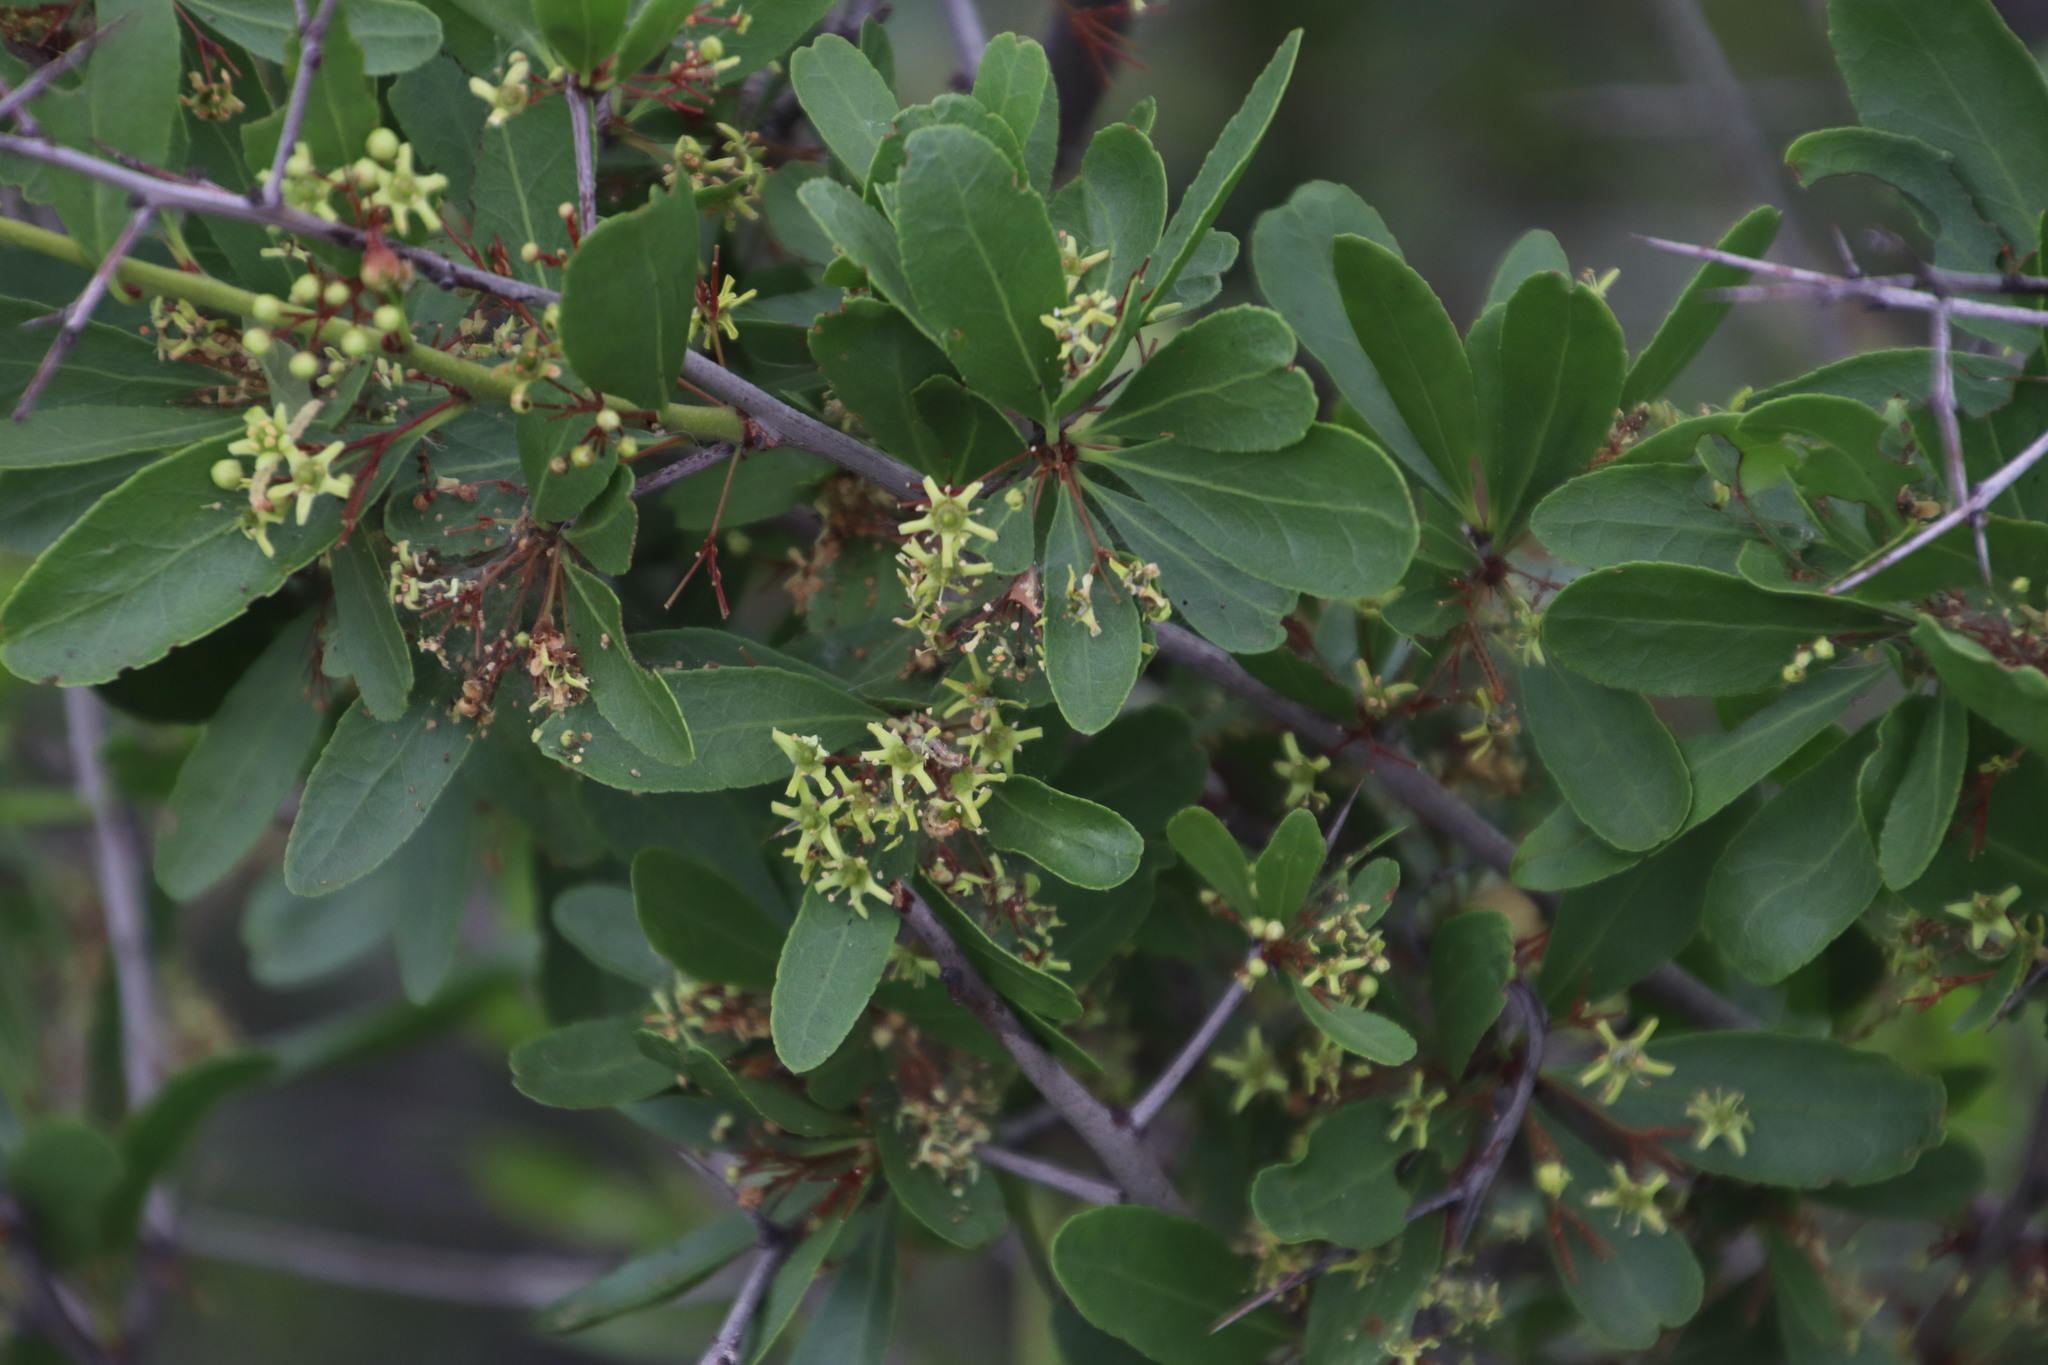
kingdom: Plantae
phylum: Tracheophyta
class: Magnoliopsida
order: Celastrales
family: Celastraceae
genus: Gymnosporia
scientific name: Gymnosporia tenuispina
